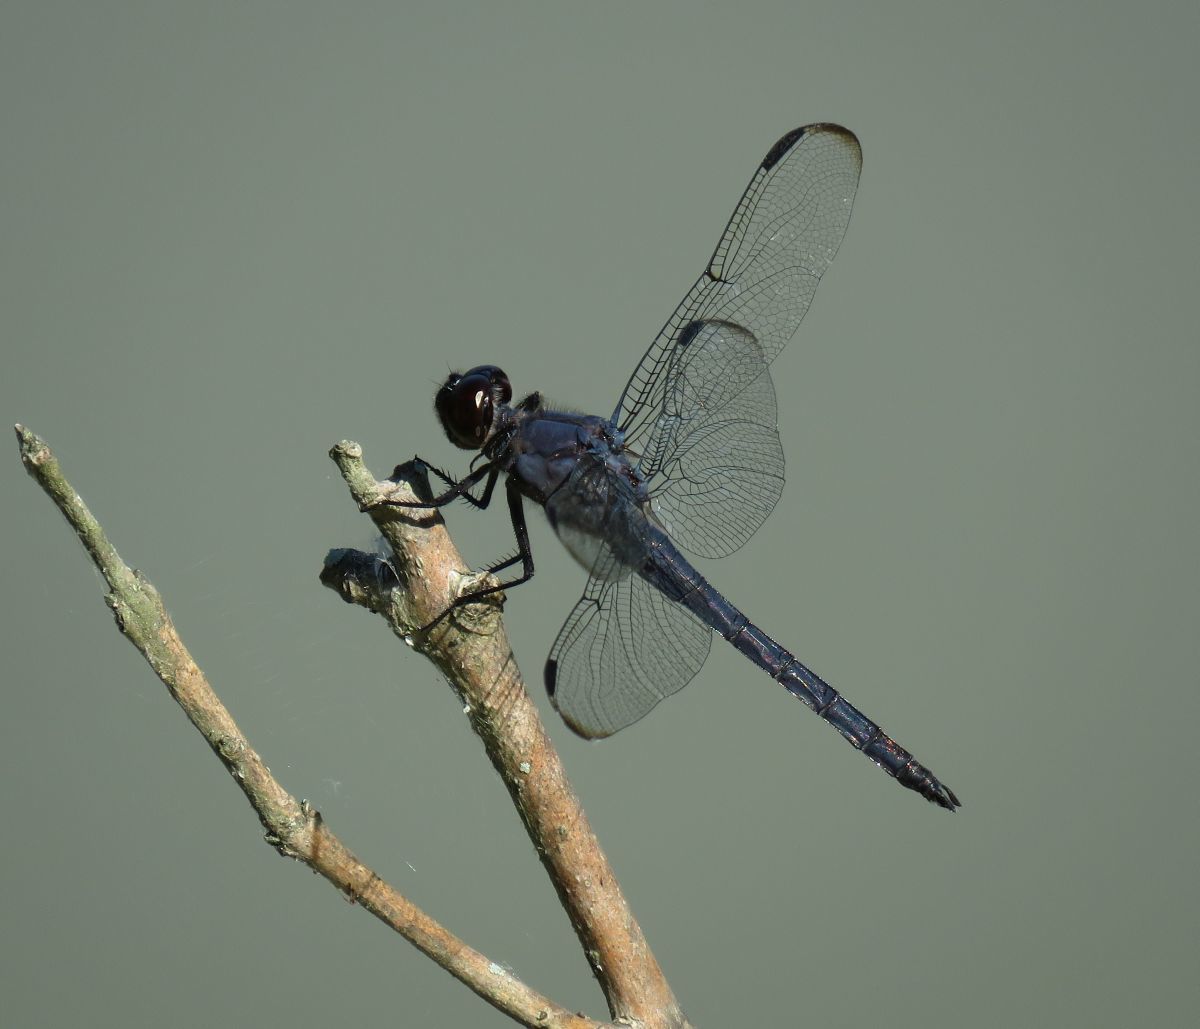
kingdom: Animalia
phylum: Arthropoda
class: Insecta
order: Odonata
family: Libellulidae
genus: Libellula
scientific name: Libellula incesta
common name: Slaty skimmer
